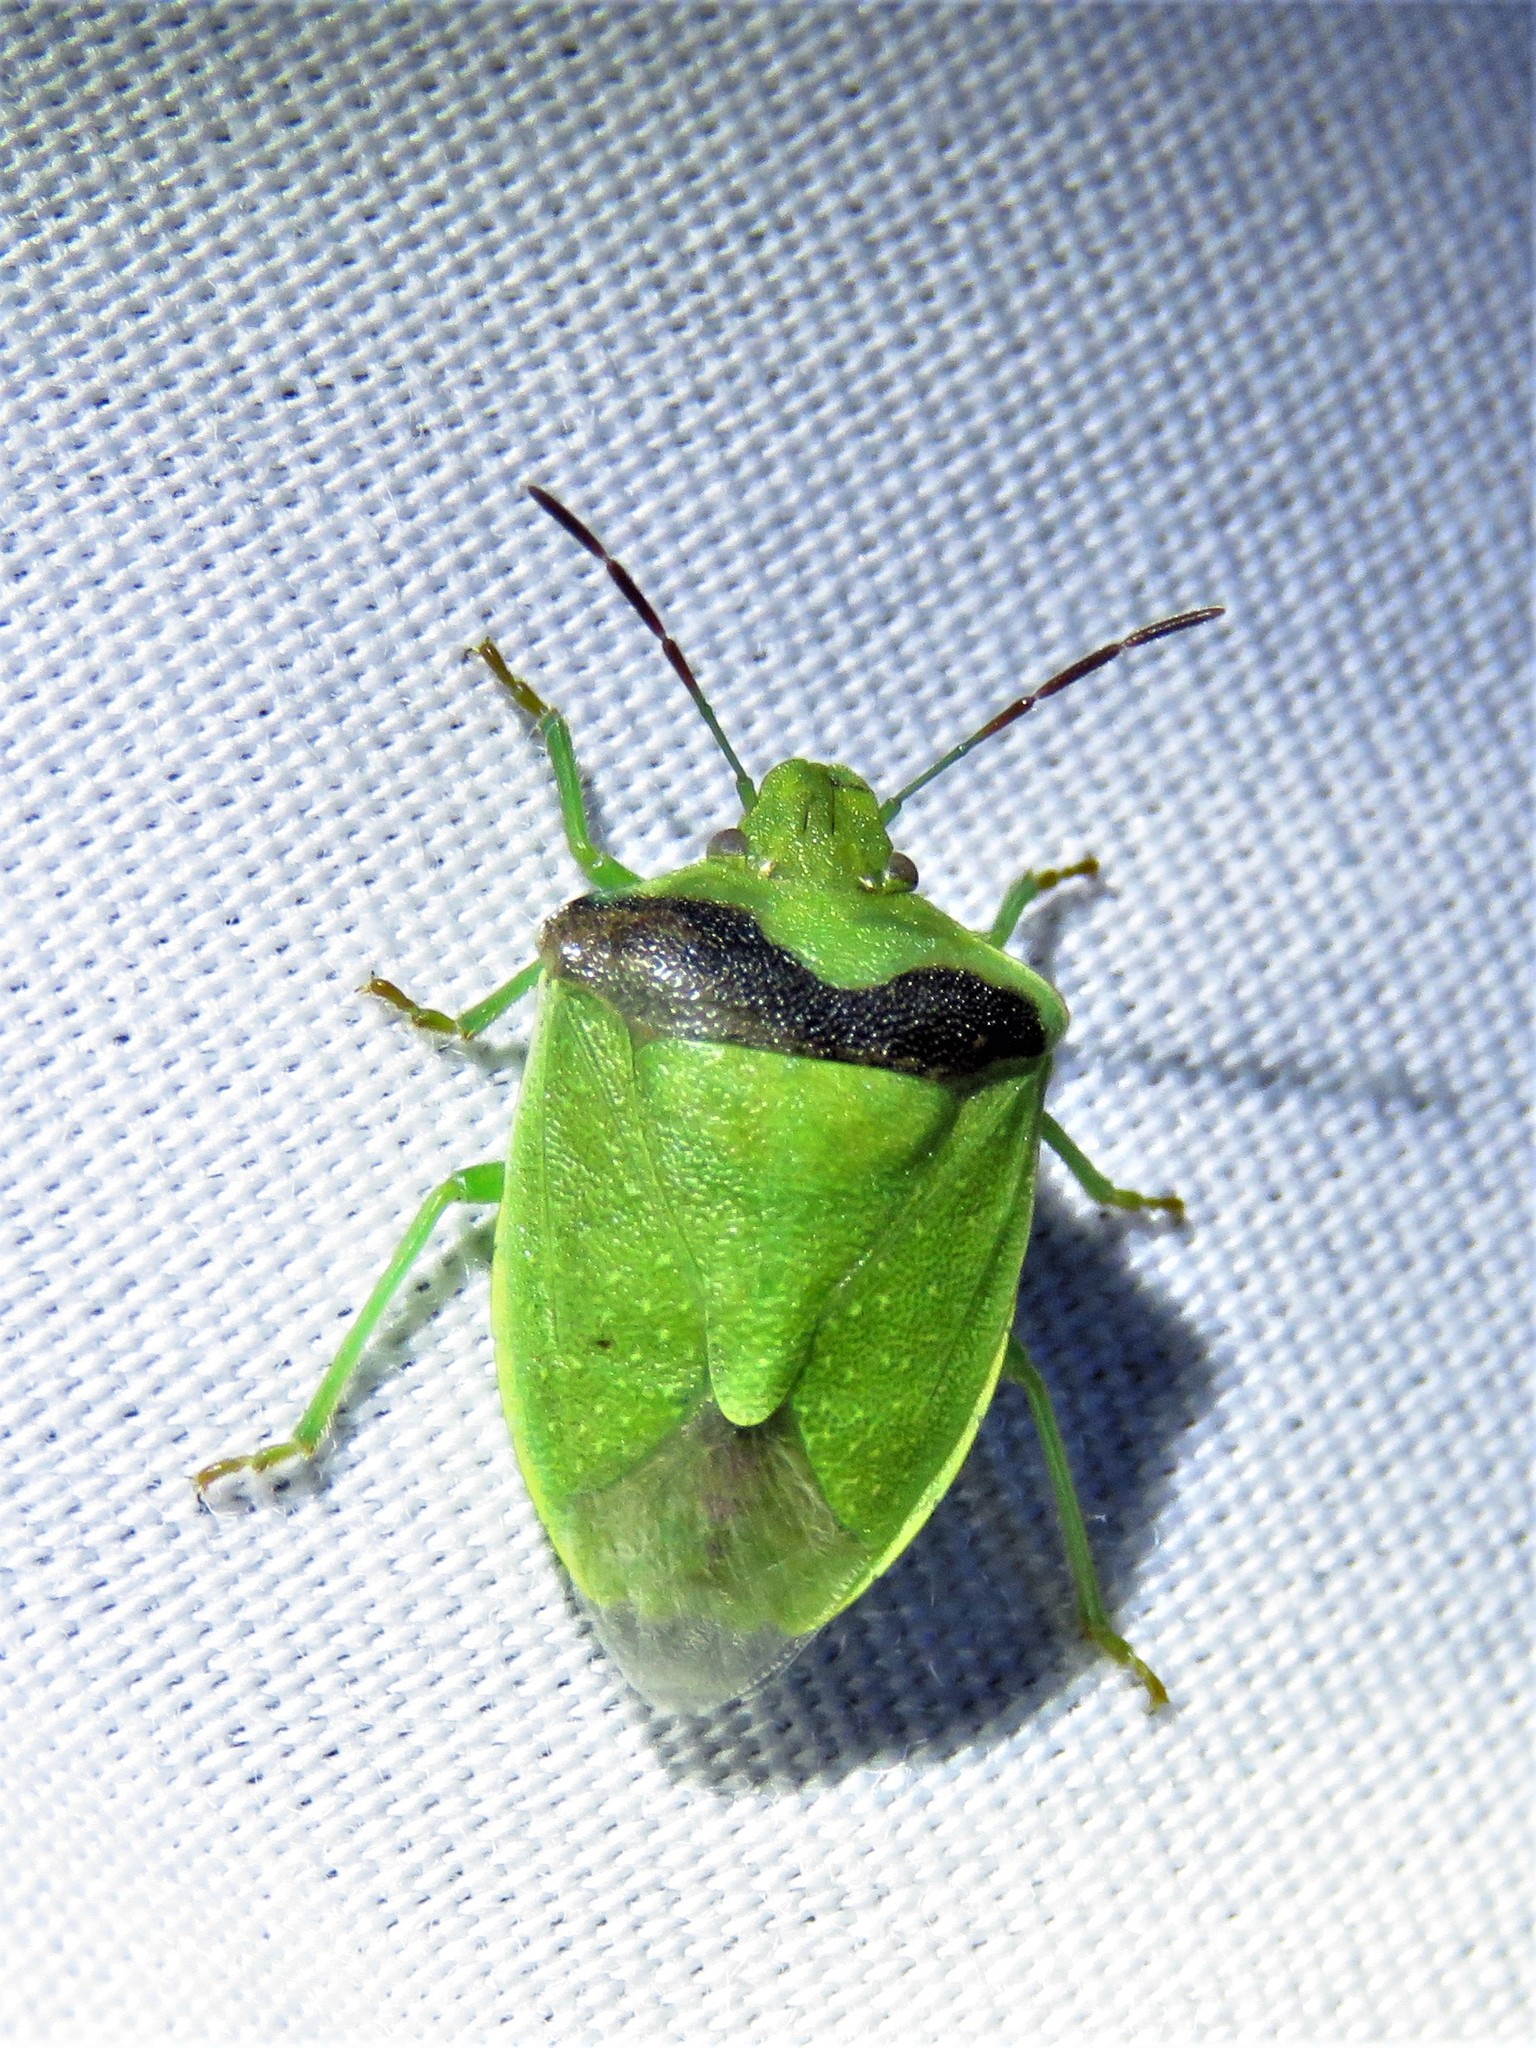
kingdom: Animalia
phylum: Arthropoda
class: Insecta
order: Hemiptera
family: Pentatomidae
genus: Thyanta
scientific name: Thyanta custator
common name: Stink bug
